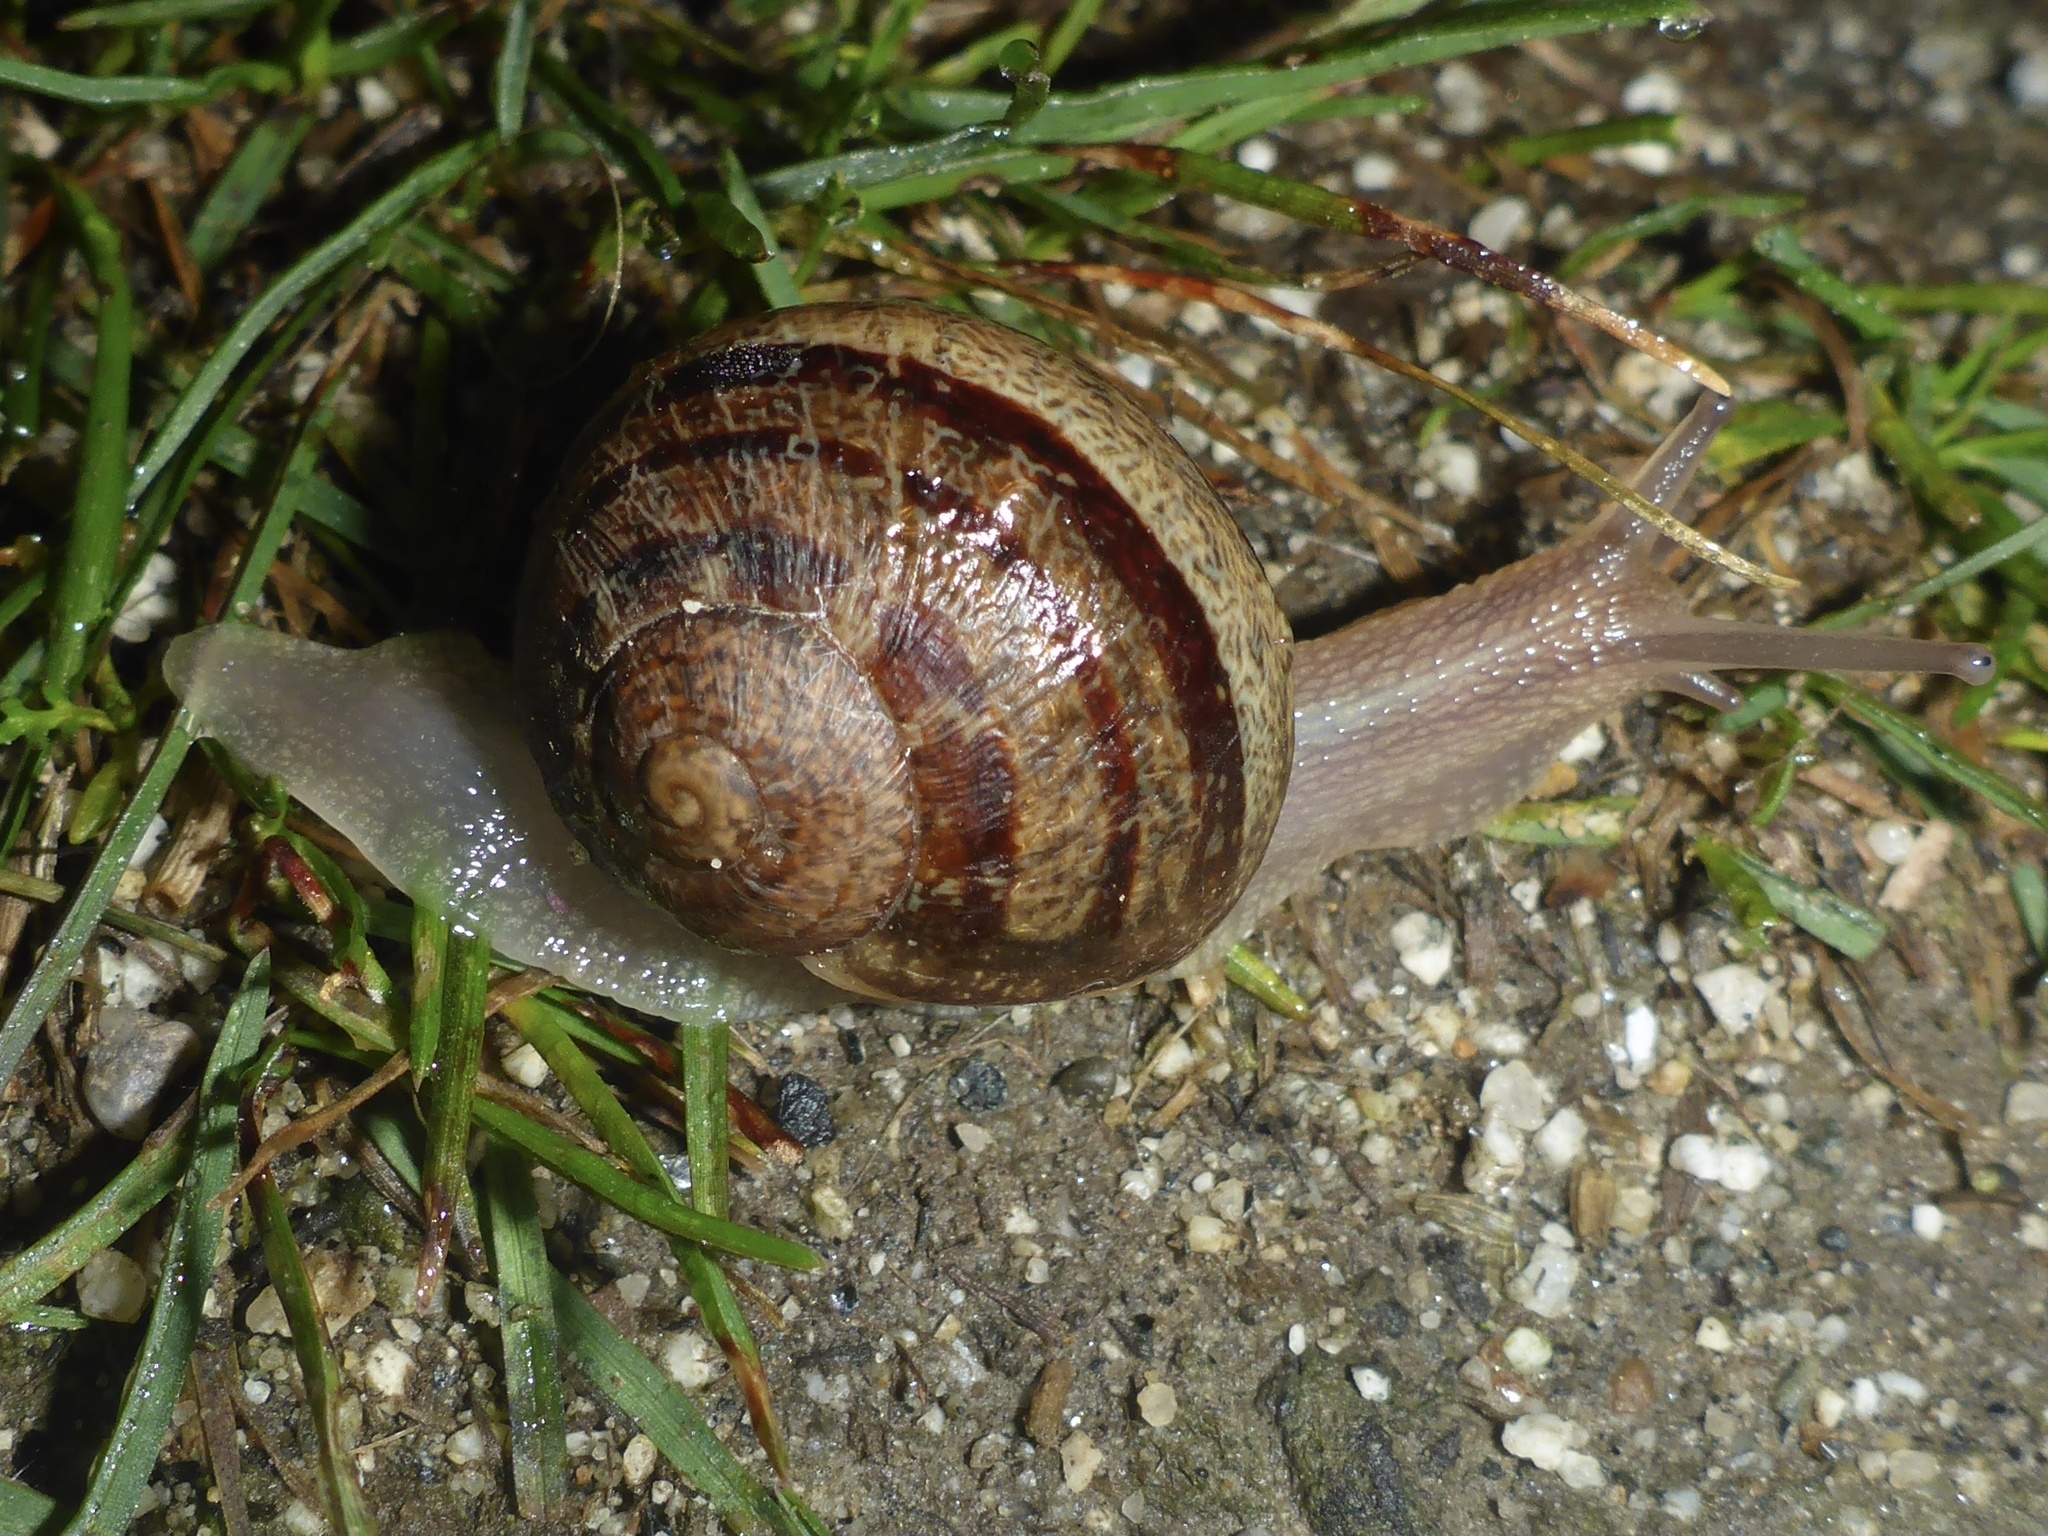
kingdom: Animalia
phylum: Mollusca
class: Gastropoda
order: Stylommatophora
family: Helicidae
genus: Cornu
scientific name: Cornu aspersum
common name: Brown garden snail
